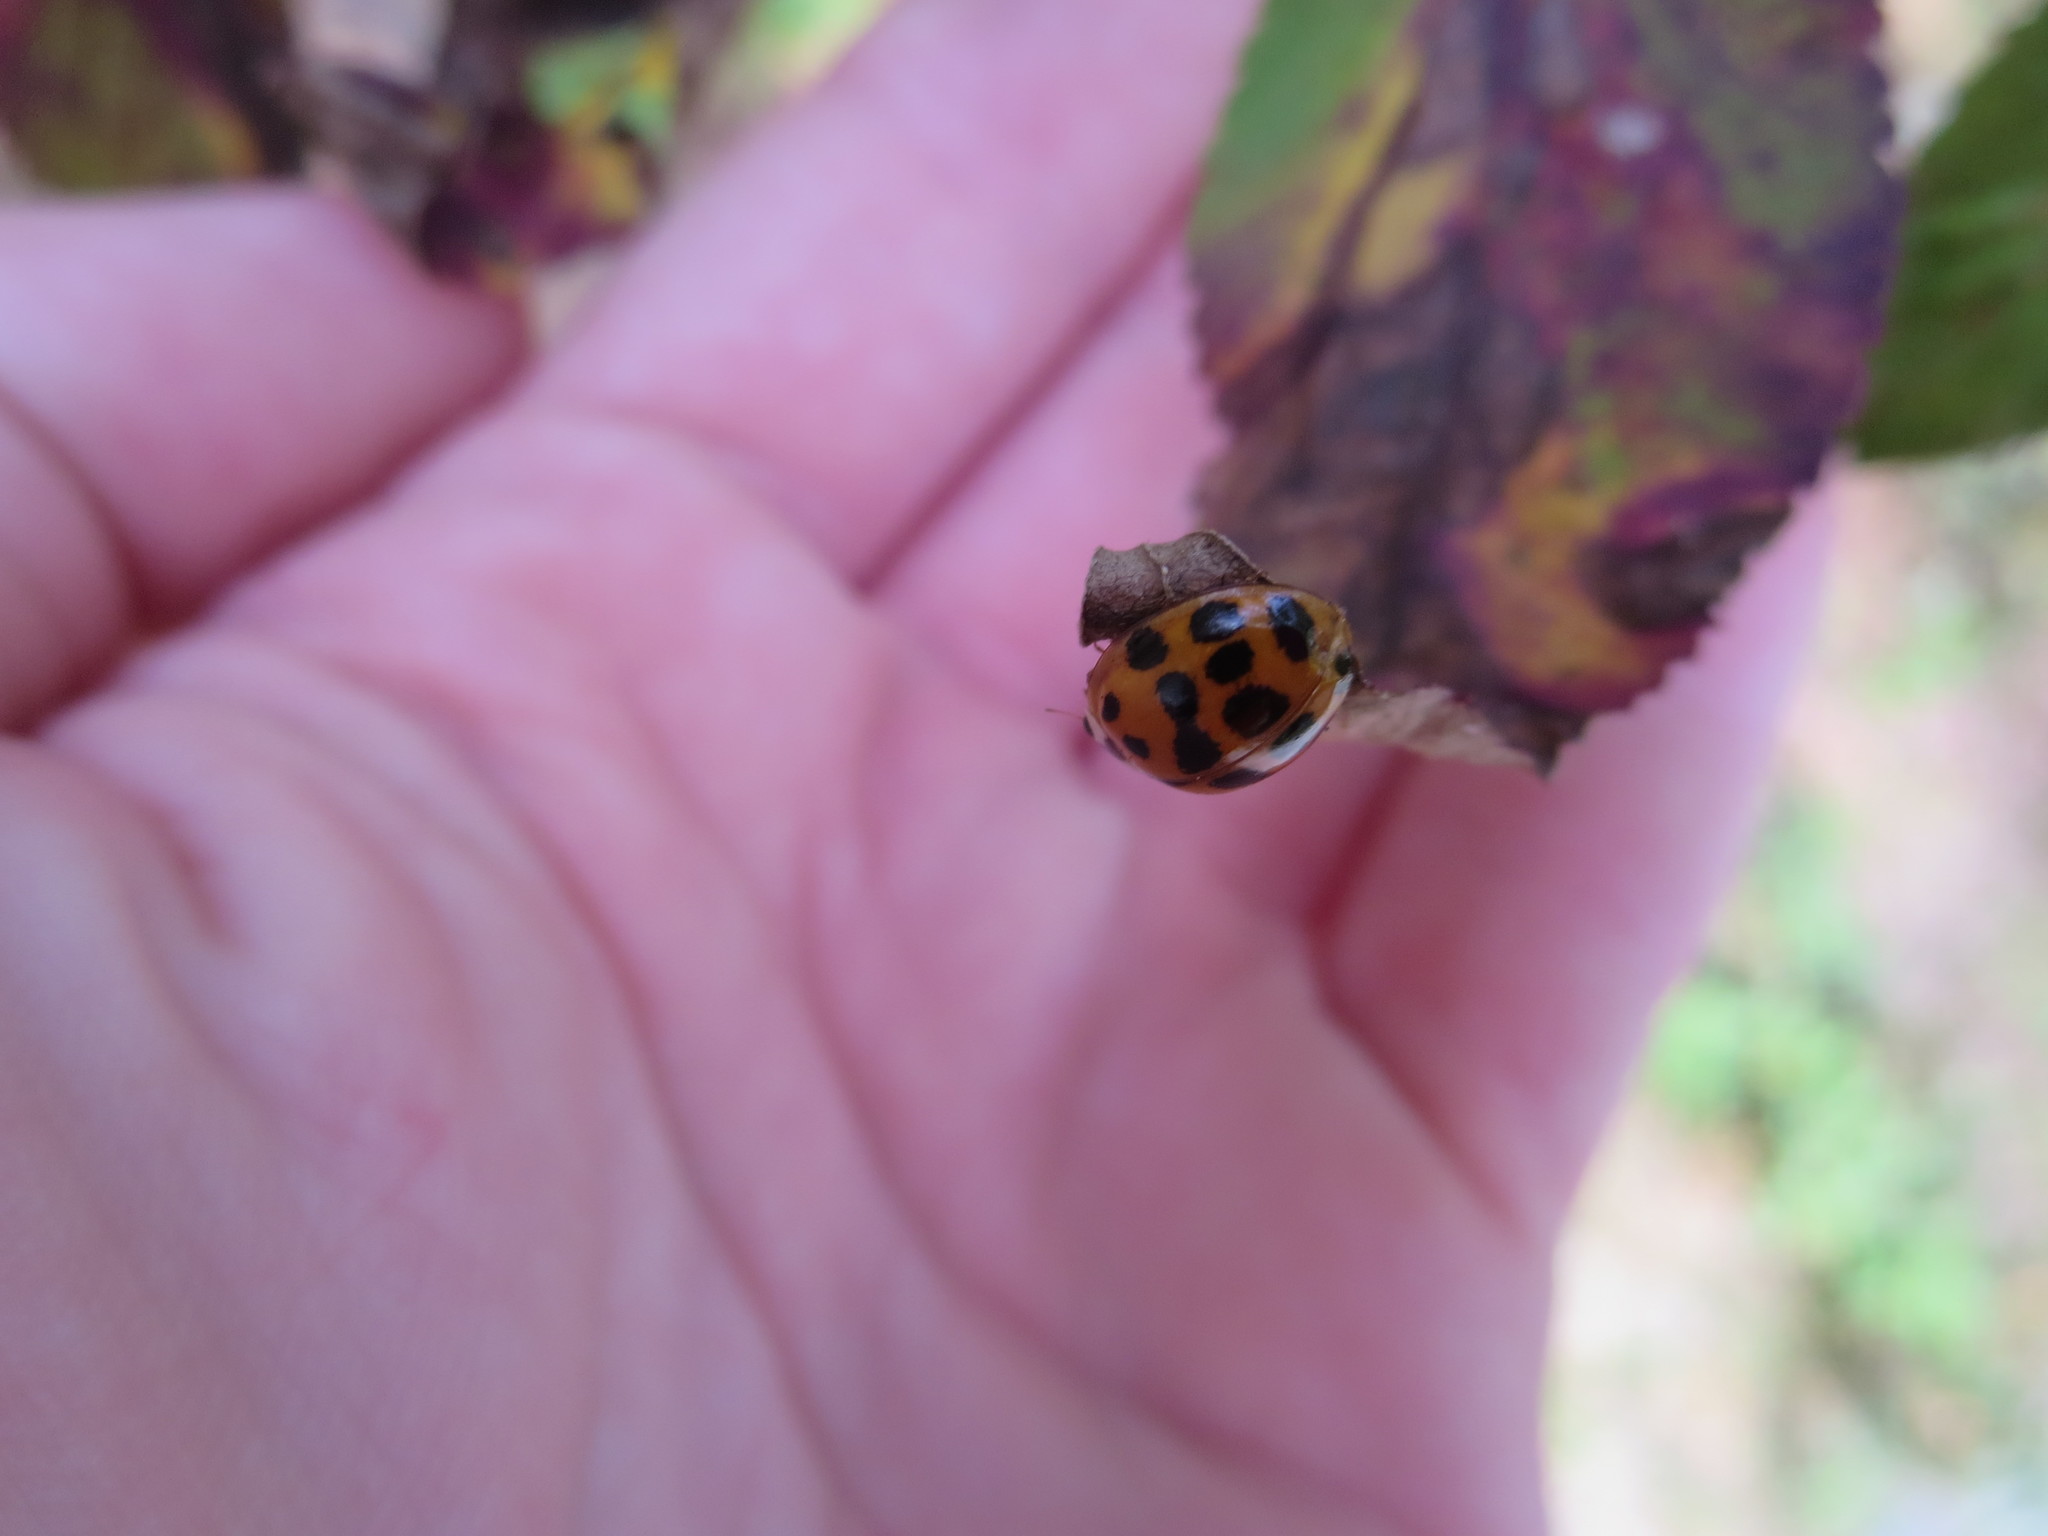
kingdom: Animalia
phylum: Arthropoda
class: Insecta
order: Coleoptera
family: Coccinellidae
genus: Harmonia
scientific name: Harmonia axyridis
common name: Harlequin ladybird
